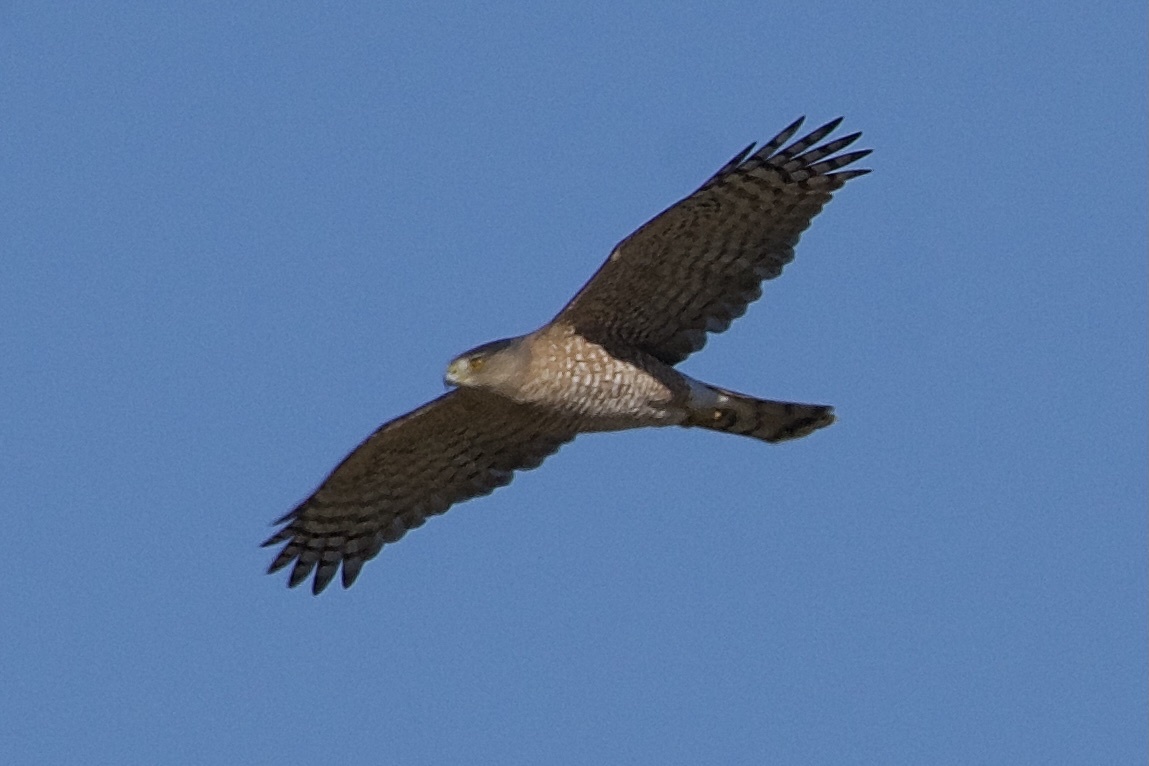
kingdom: Animalia
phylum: Chordata
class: Aves
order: Accipitriformes
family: Accipitridae
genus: Accipiter
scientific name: Accipiter cooperii
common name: Cooper's hawk
